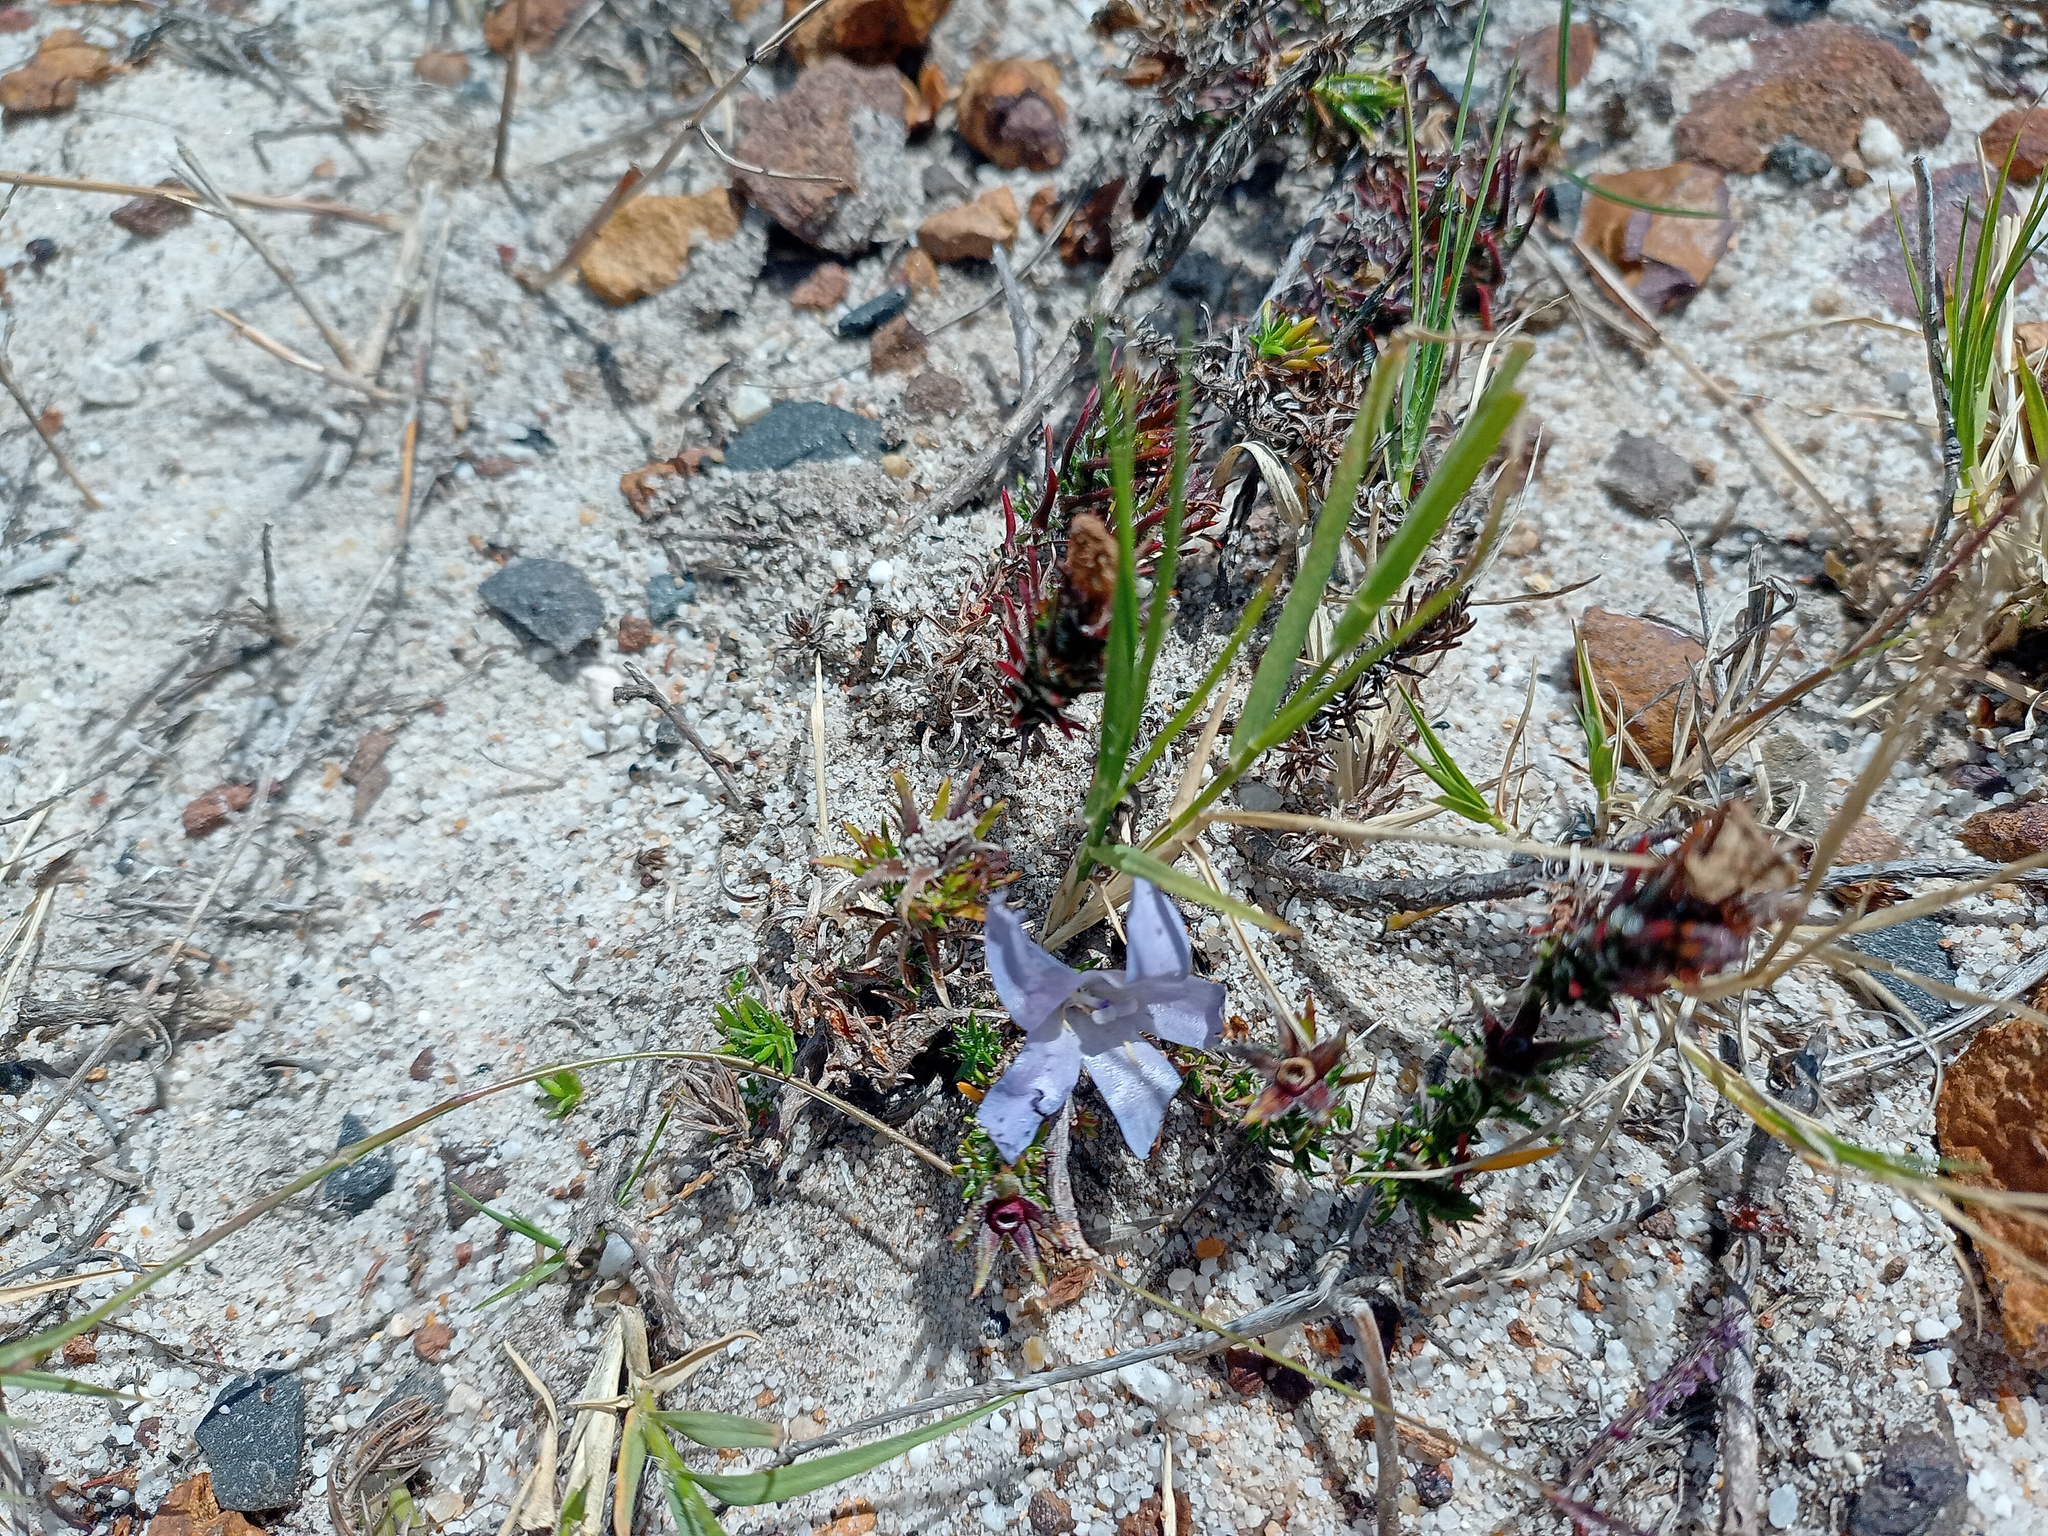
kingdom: Plantae
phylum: Tracheophyta
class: Magnoliopsida
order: Asterales
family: Campanulaceae
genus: Roella
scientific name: Roella prostrata
